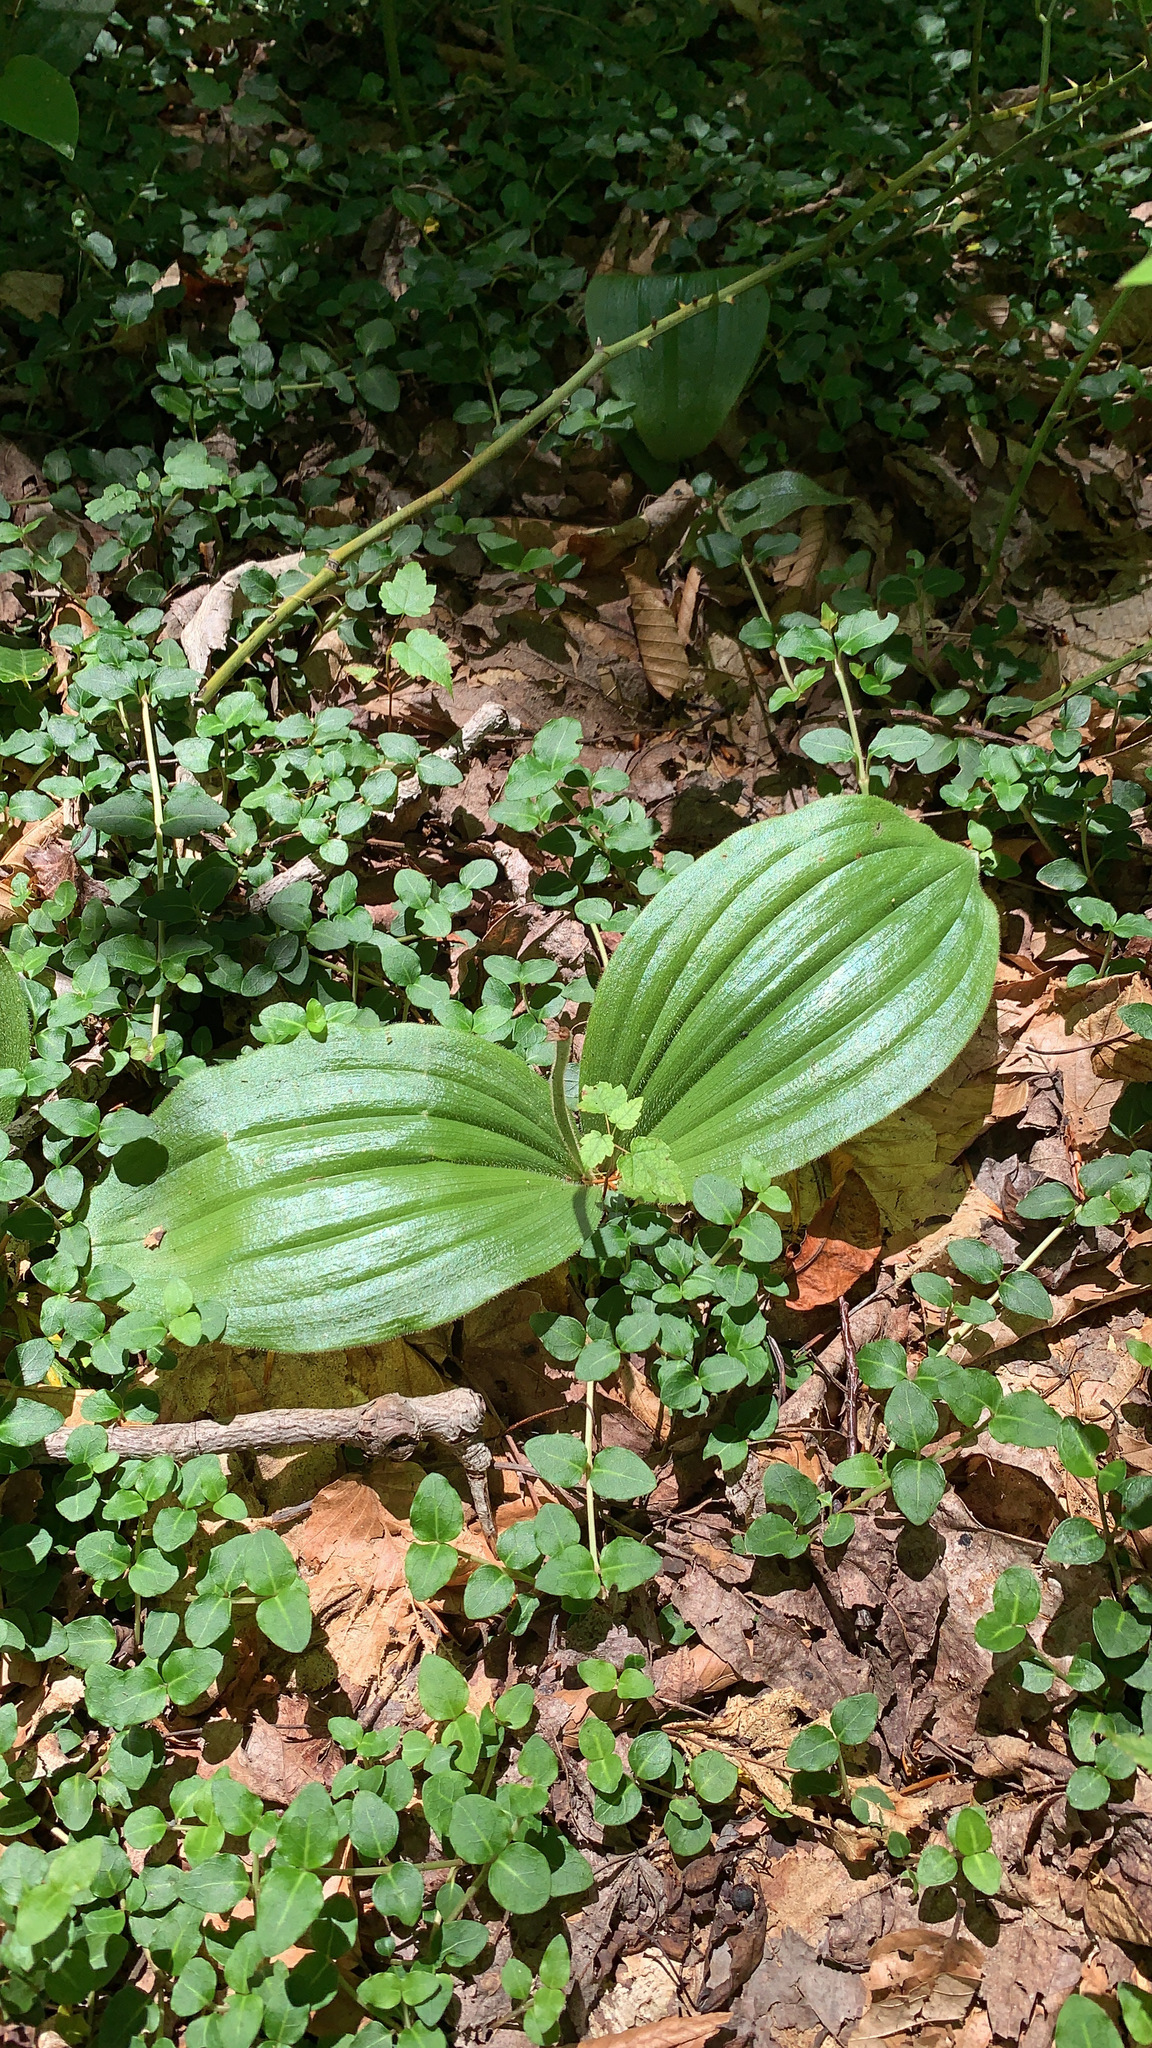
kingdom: Plantae
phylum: Tracheophyta
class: Liliopsida
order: Asparagales
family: Orchidaceae
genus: Cypripedium
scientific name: Cypripedium acaule
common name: Pink lady's-slipper
